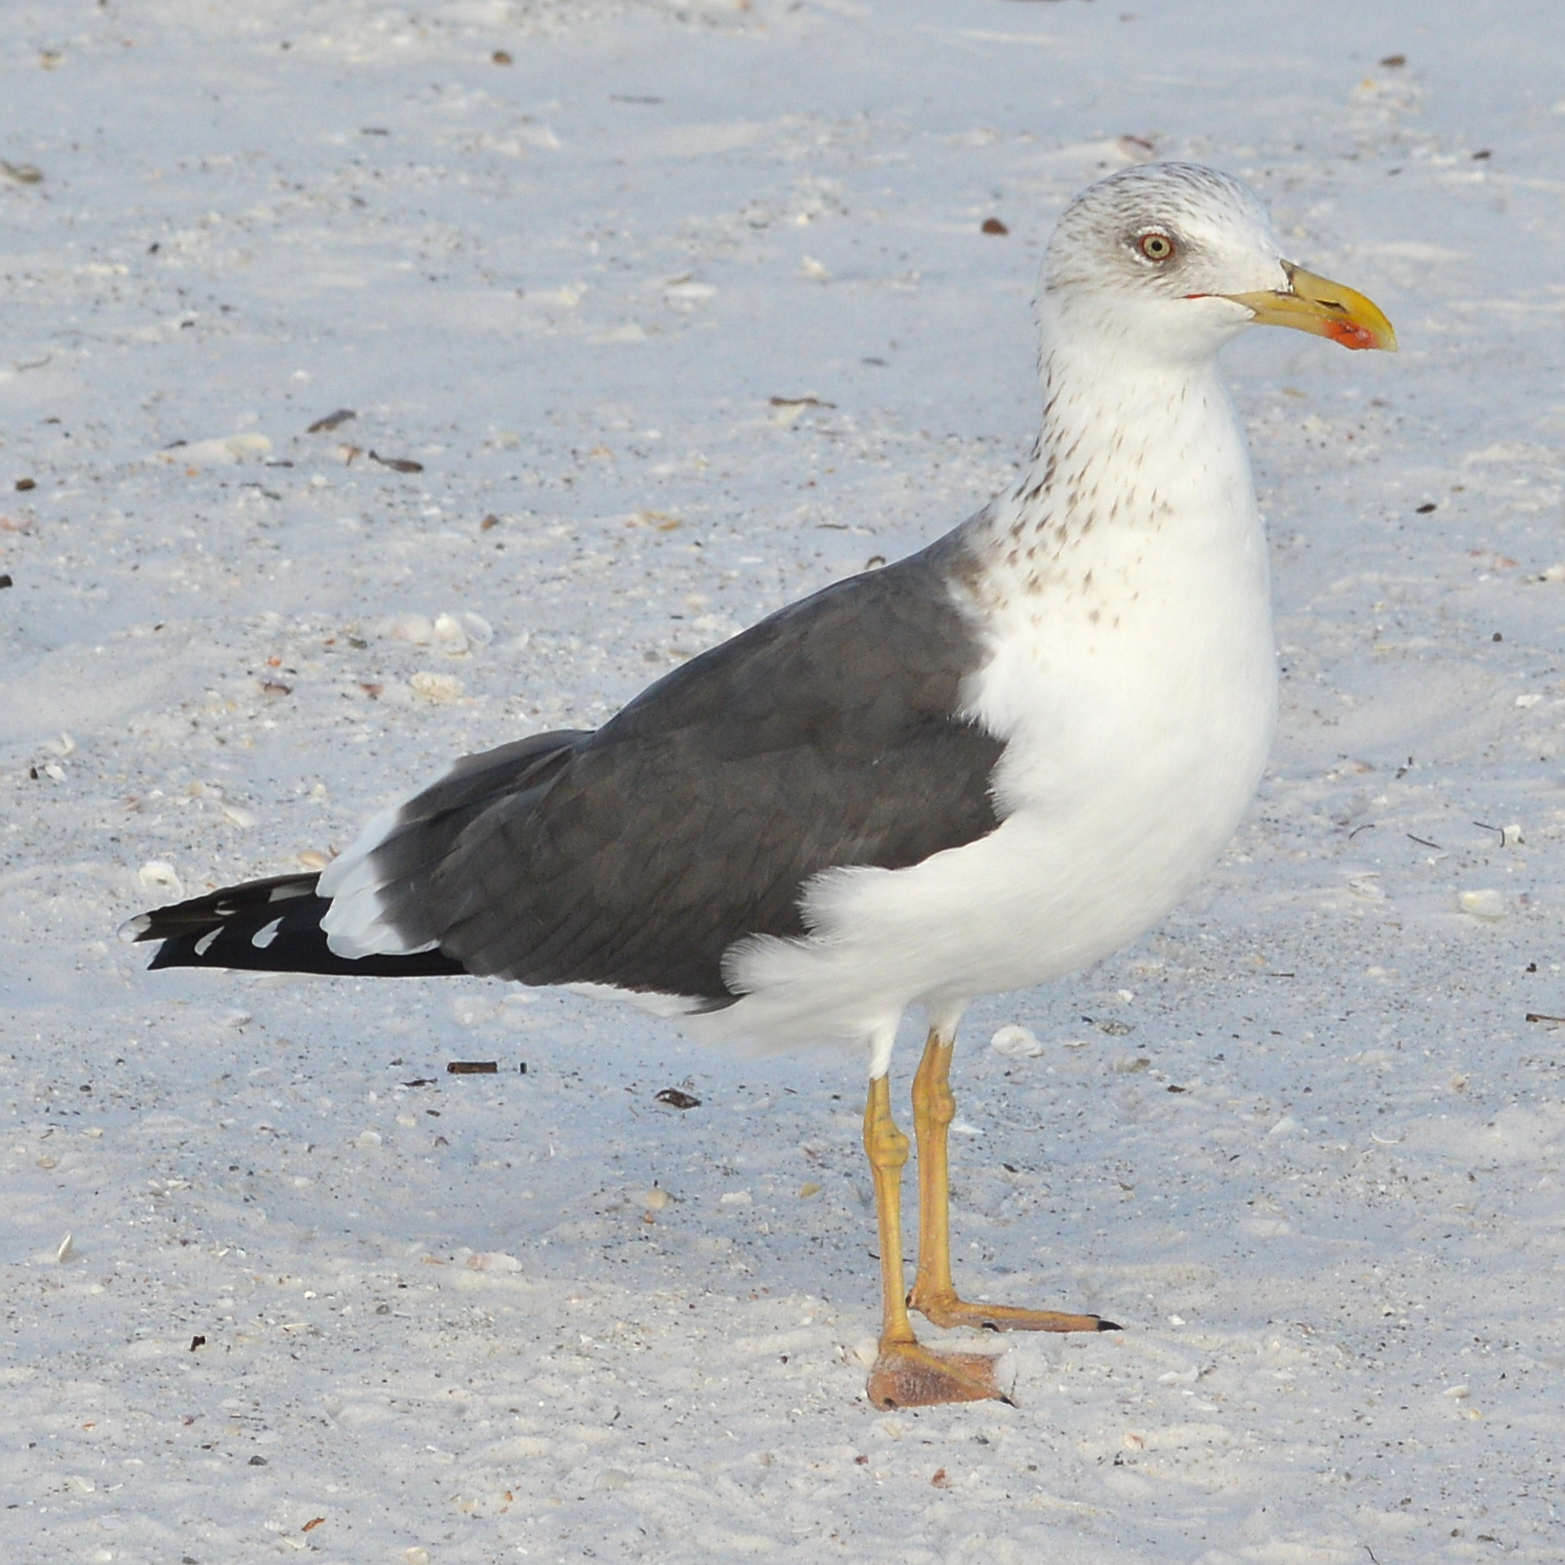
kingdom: Animalia
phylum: Chordata
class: Aves
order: Charadriiformes
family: Laridae
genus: Larus
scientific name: Larus fuscus
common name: Lesser black-backed gull
